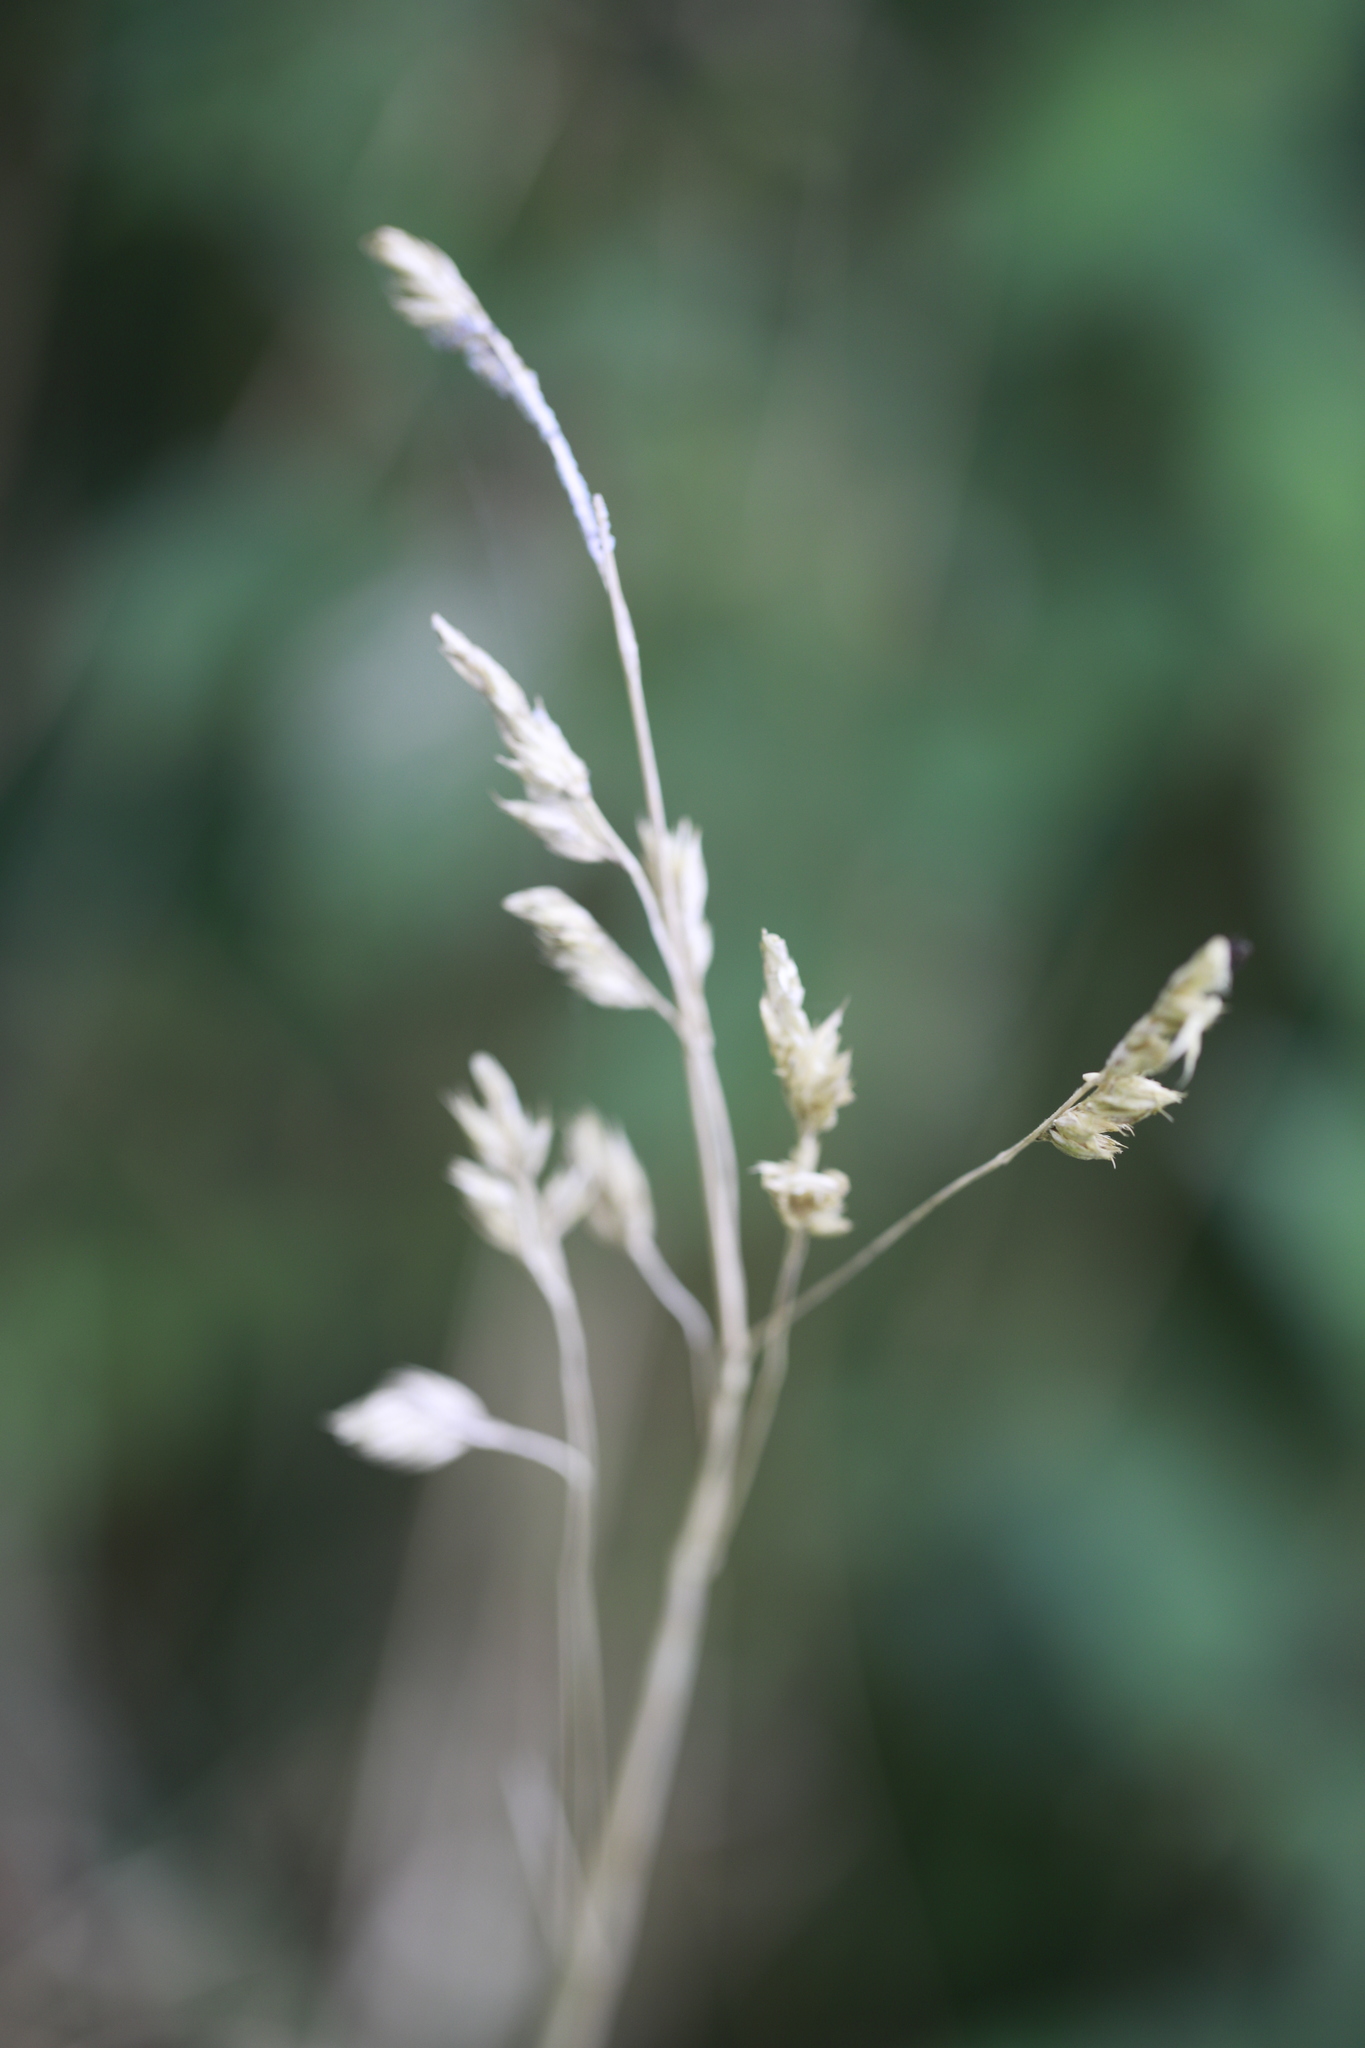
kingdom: Plantae
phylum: Tracheophyta
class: Liliopsida
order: Poales
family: Poaceae
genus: Dactylis
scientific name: Dactylis glomerata
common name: Orchardgrass
